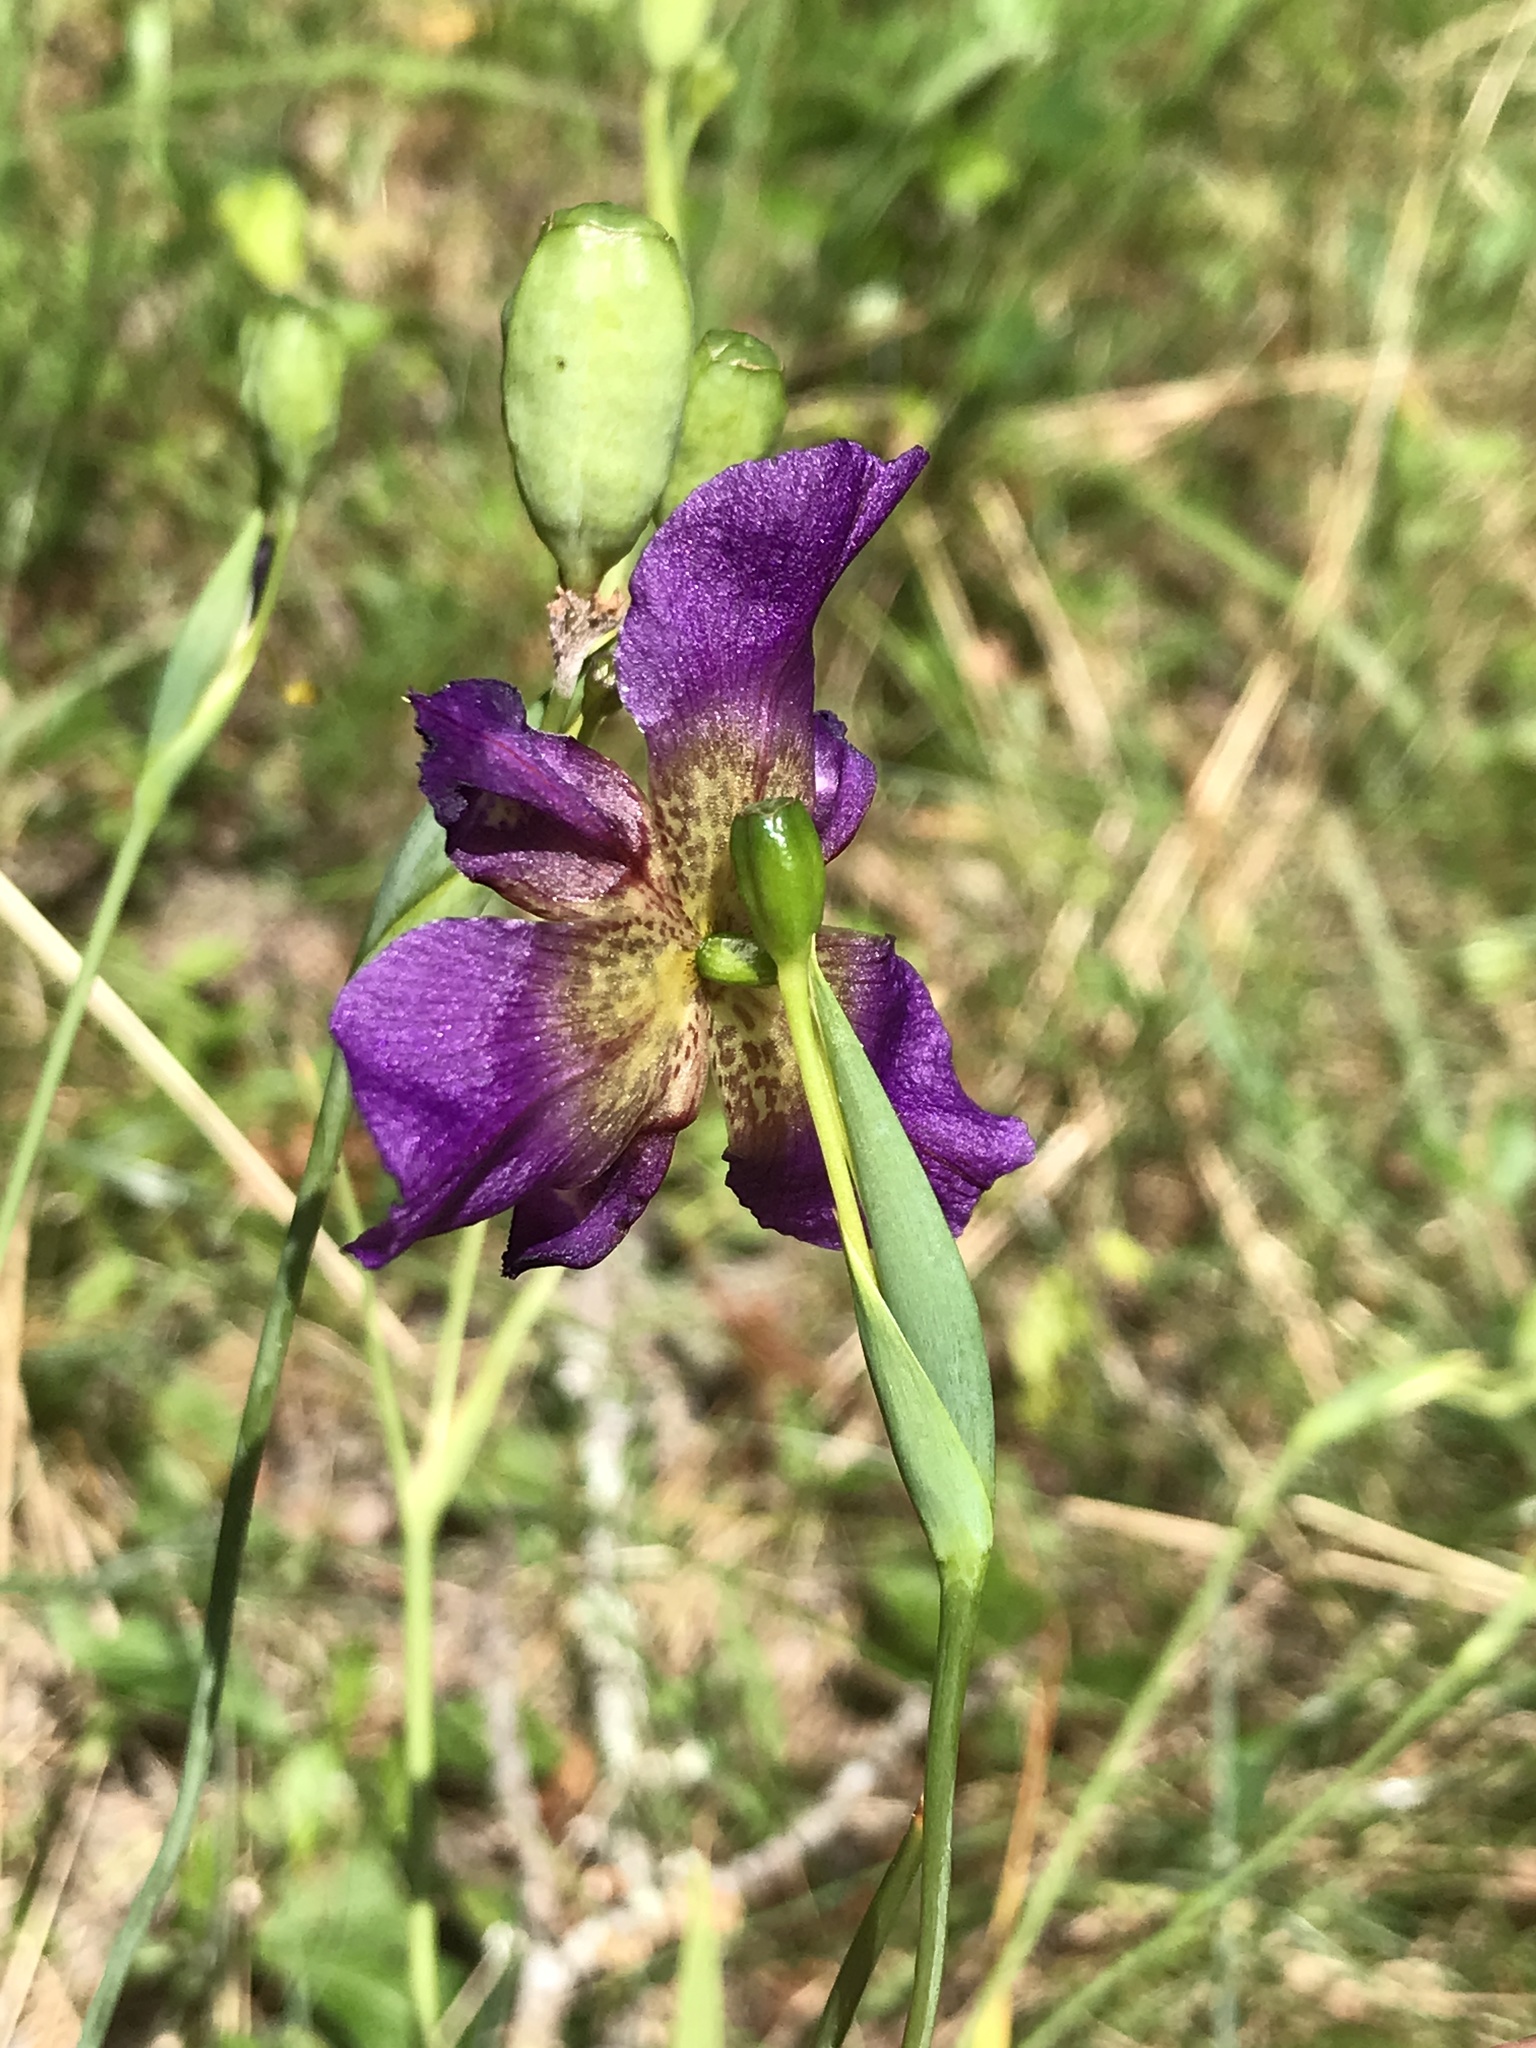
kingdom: Plantae
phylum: Tracheophyta
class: Liliopsida
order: Asparagales
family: Iridaceae
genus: Alophia
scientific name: Alophia drummondii
